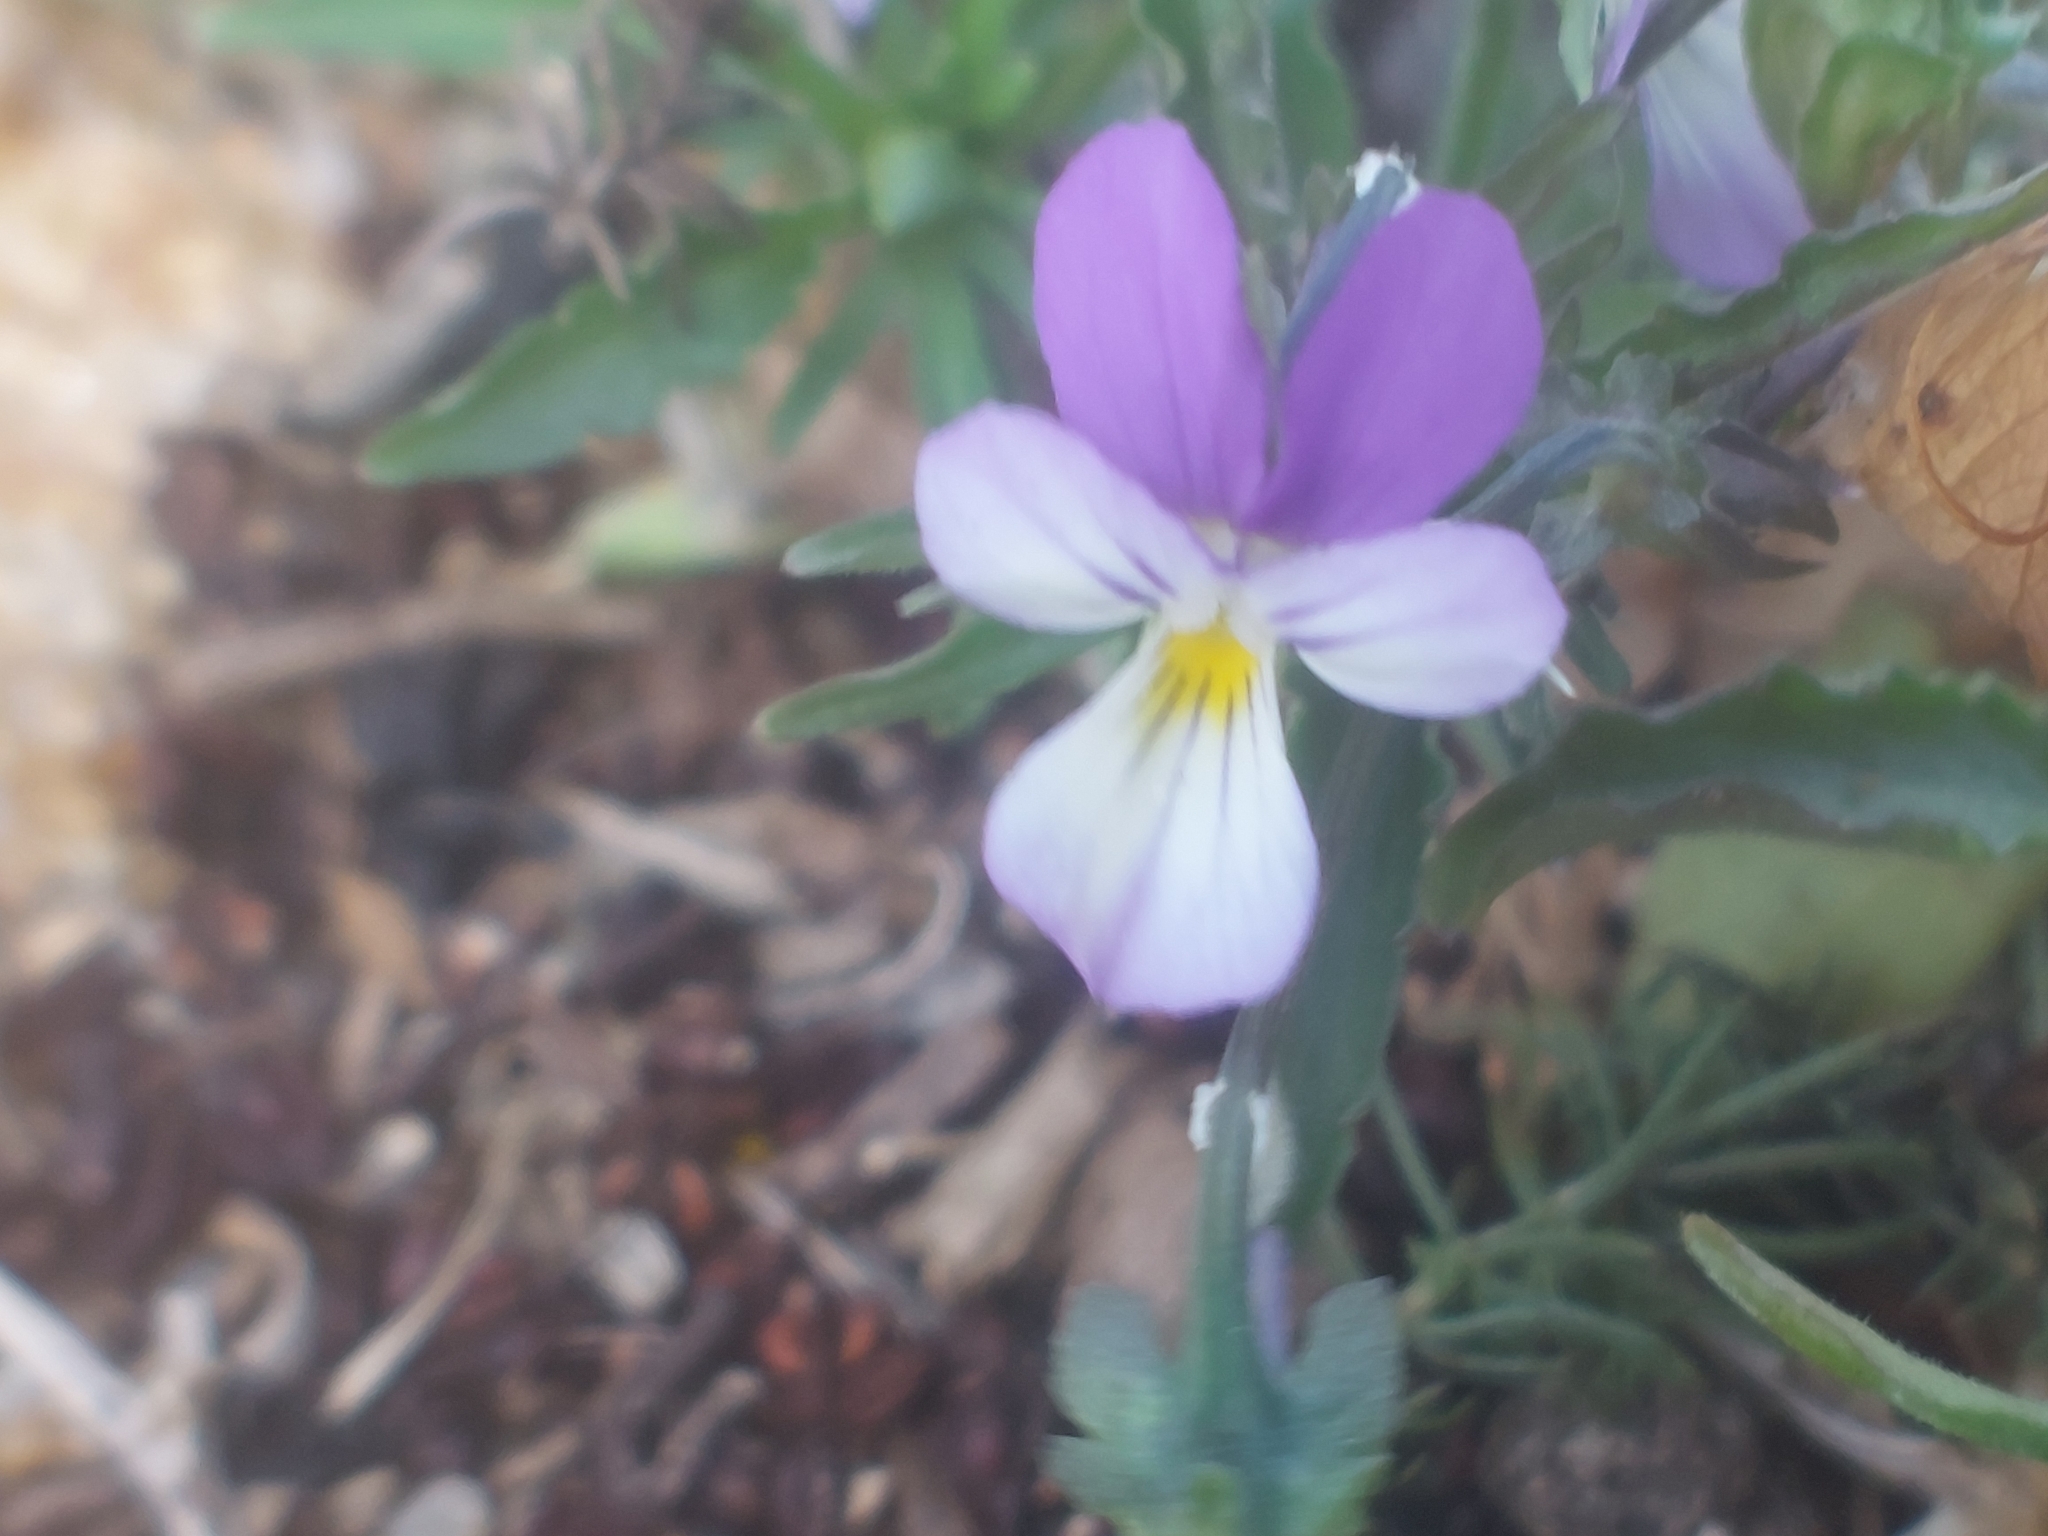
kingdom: Plantae
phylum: Tracheophyta
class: Magnoliopsida
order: Malpighiales
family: Violaceae
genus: Viola
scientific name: Viola tricolor
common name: Pansy
